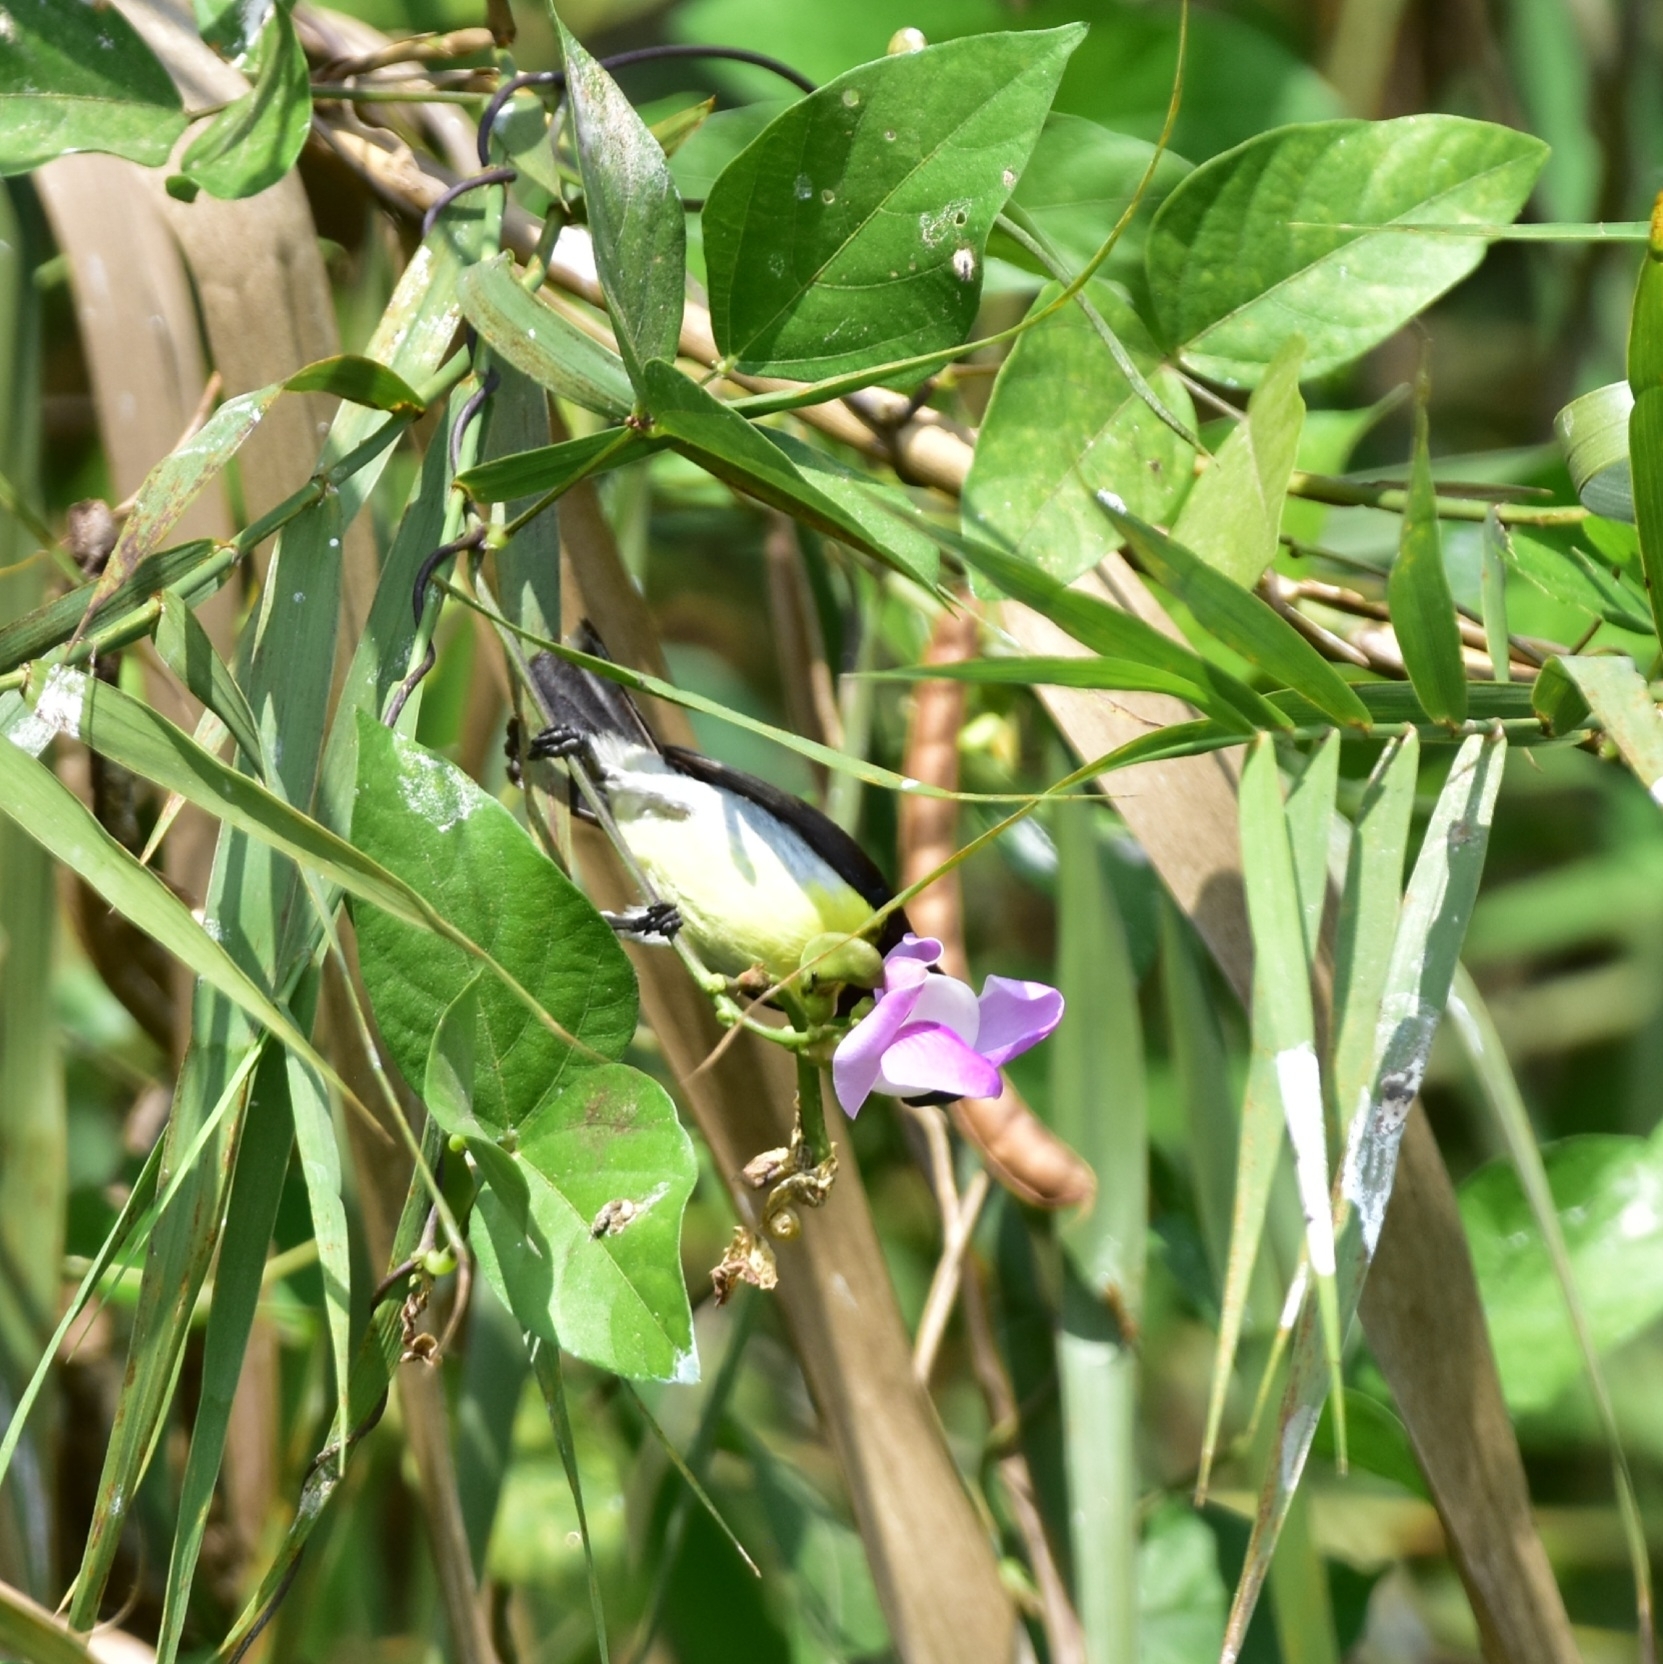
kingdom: Animalia
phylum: Chordata
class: Aves
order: Passeriformes
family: Nectariniidae
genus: Leptocoma
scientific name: Leptocoma zeylonica
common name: Purple-rumped sunbird
